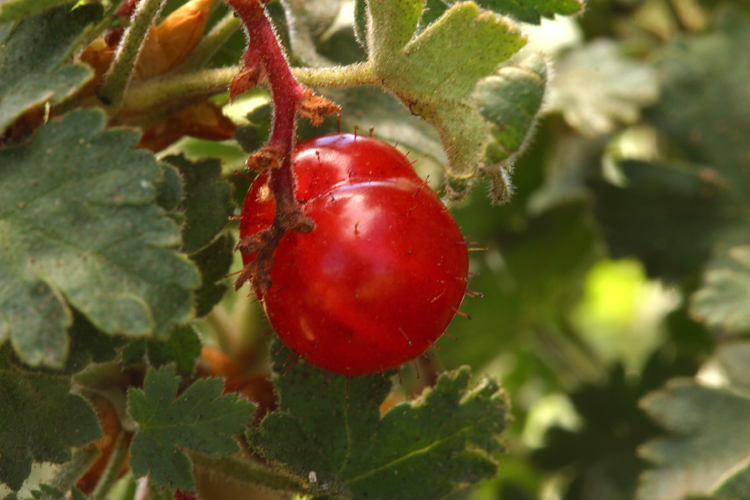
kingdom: Plantae
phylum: Tracheophyta
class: Magnoliopsida
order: Saxifragales
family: Grossulariaceae
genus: Ribes
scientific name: Ribes montigenum
